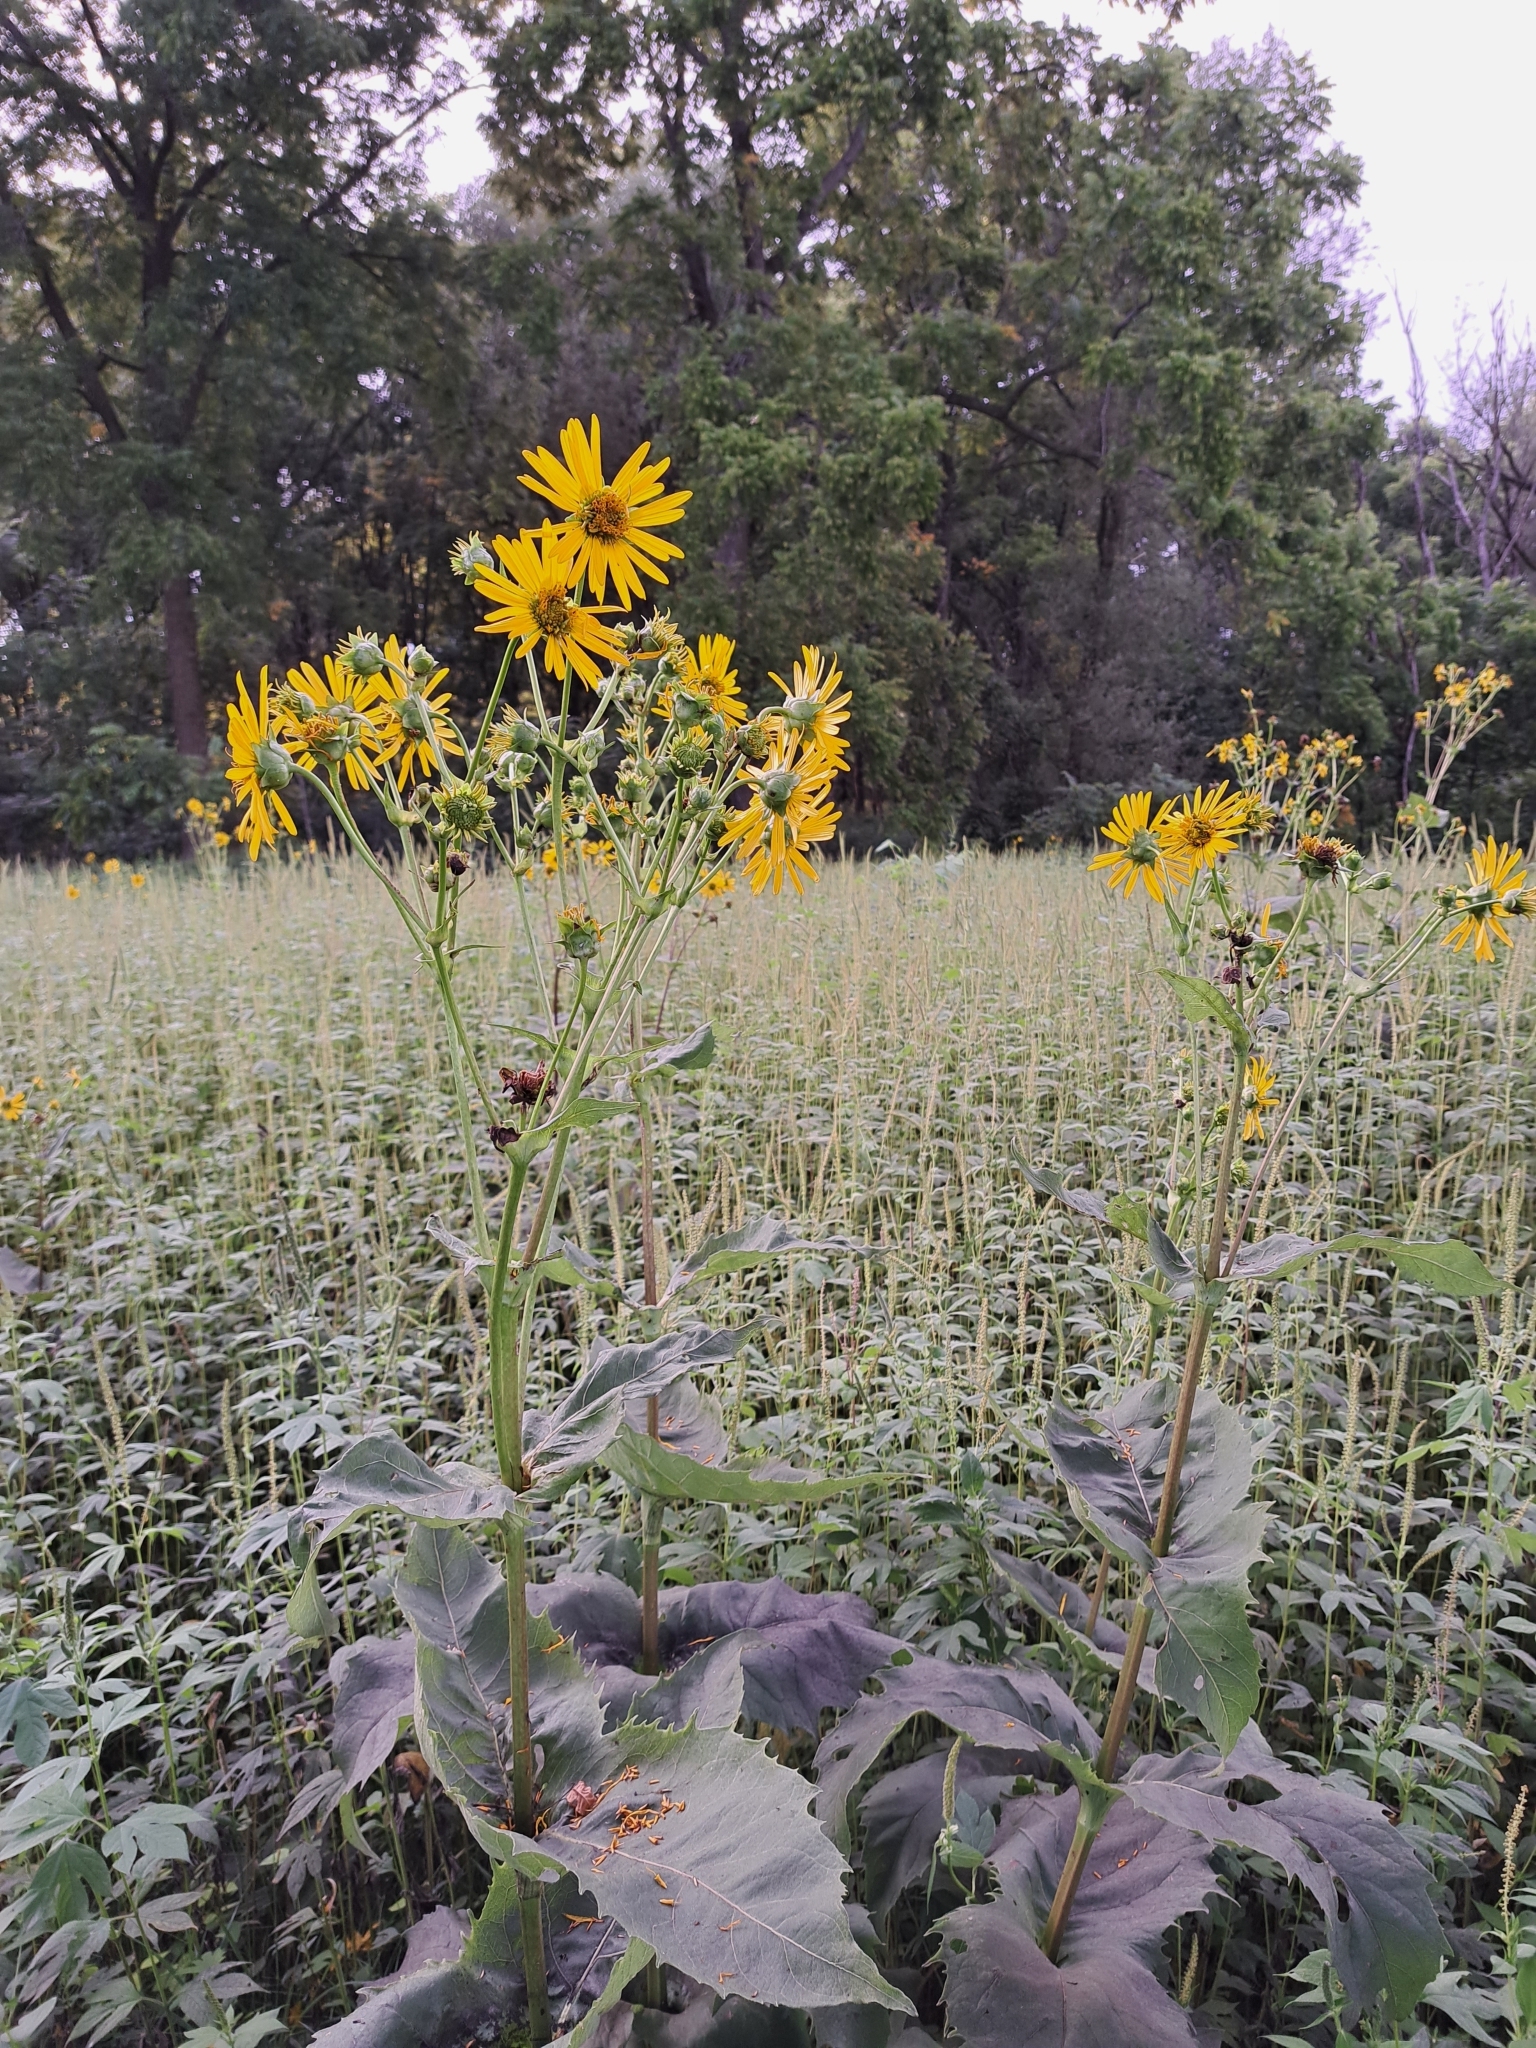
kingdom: Plantae
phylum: Tracheophyta
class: Magnoliopsida
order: Asterales
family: Asteraceae
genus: Silphium
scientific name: Silphium perfoliatum
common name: Cup-plant
